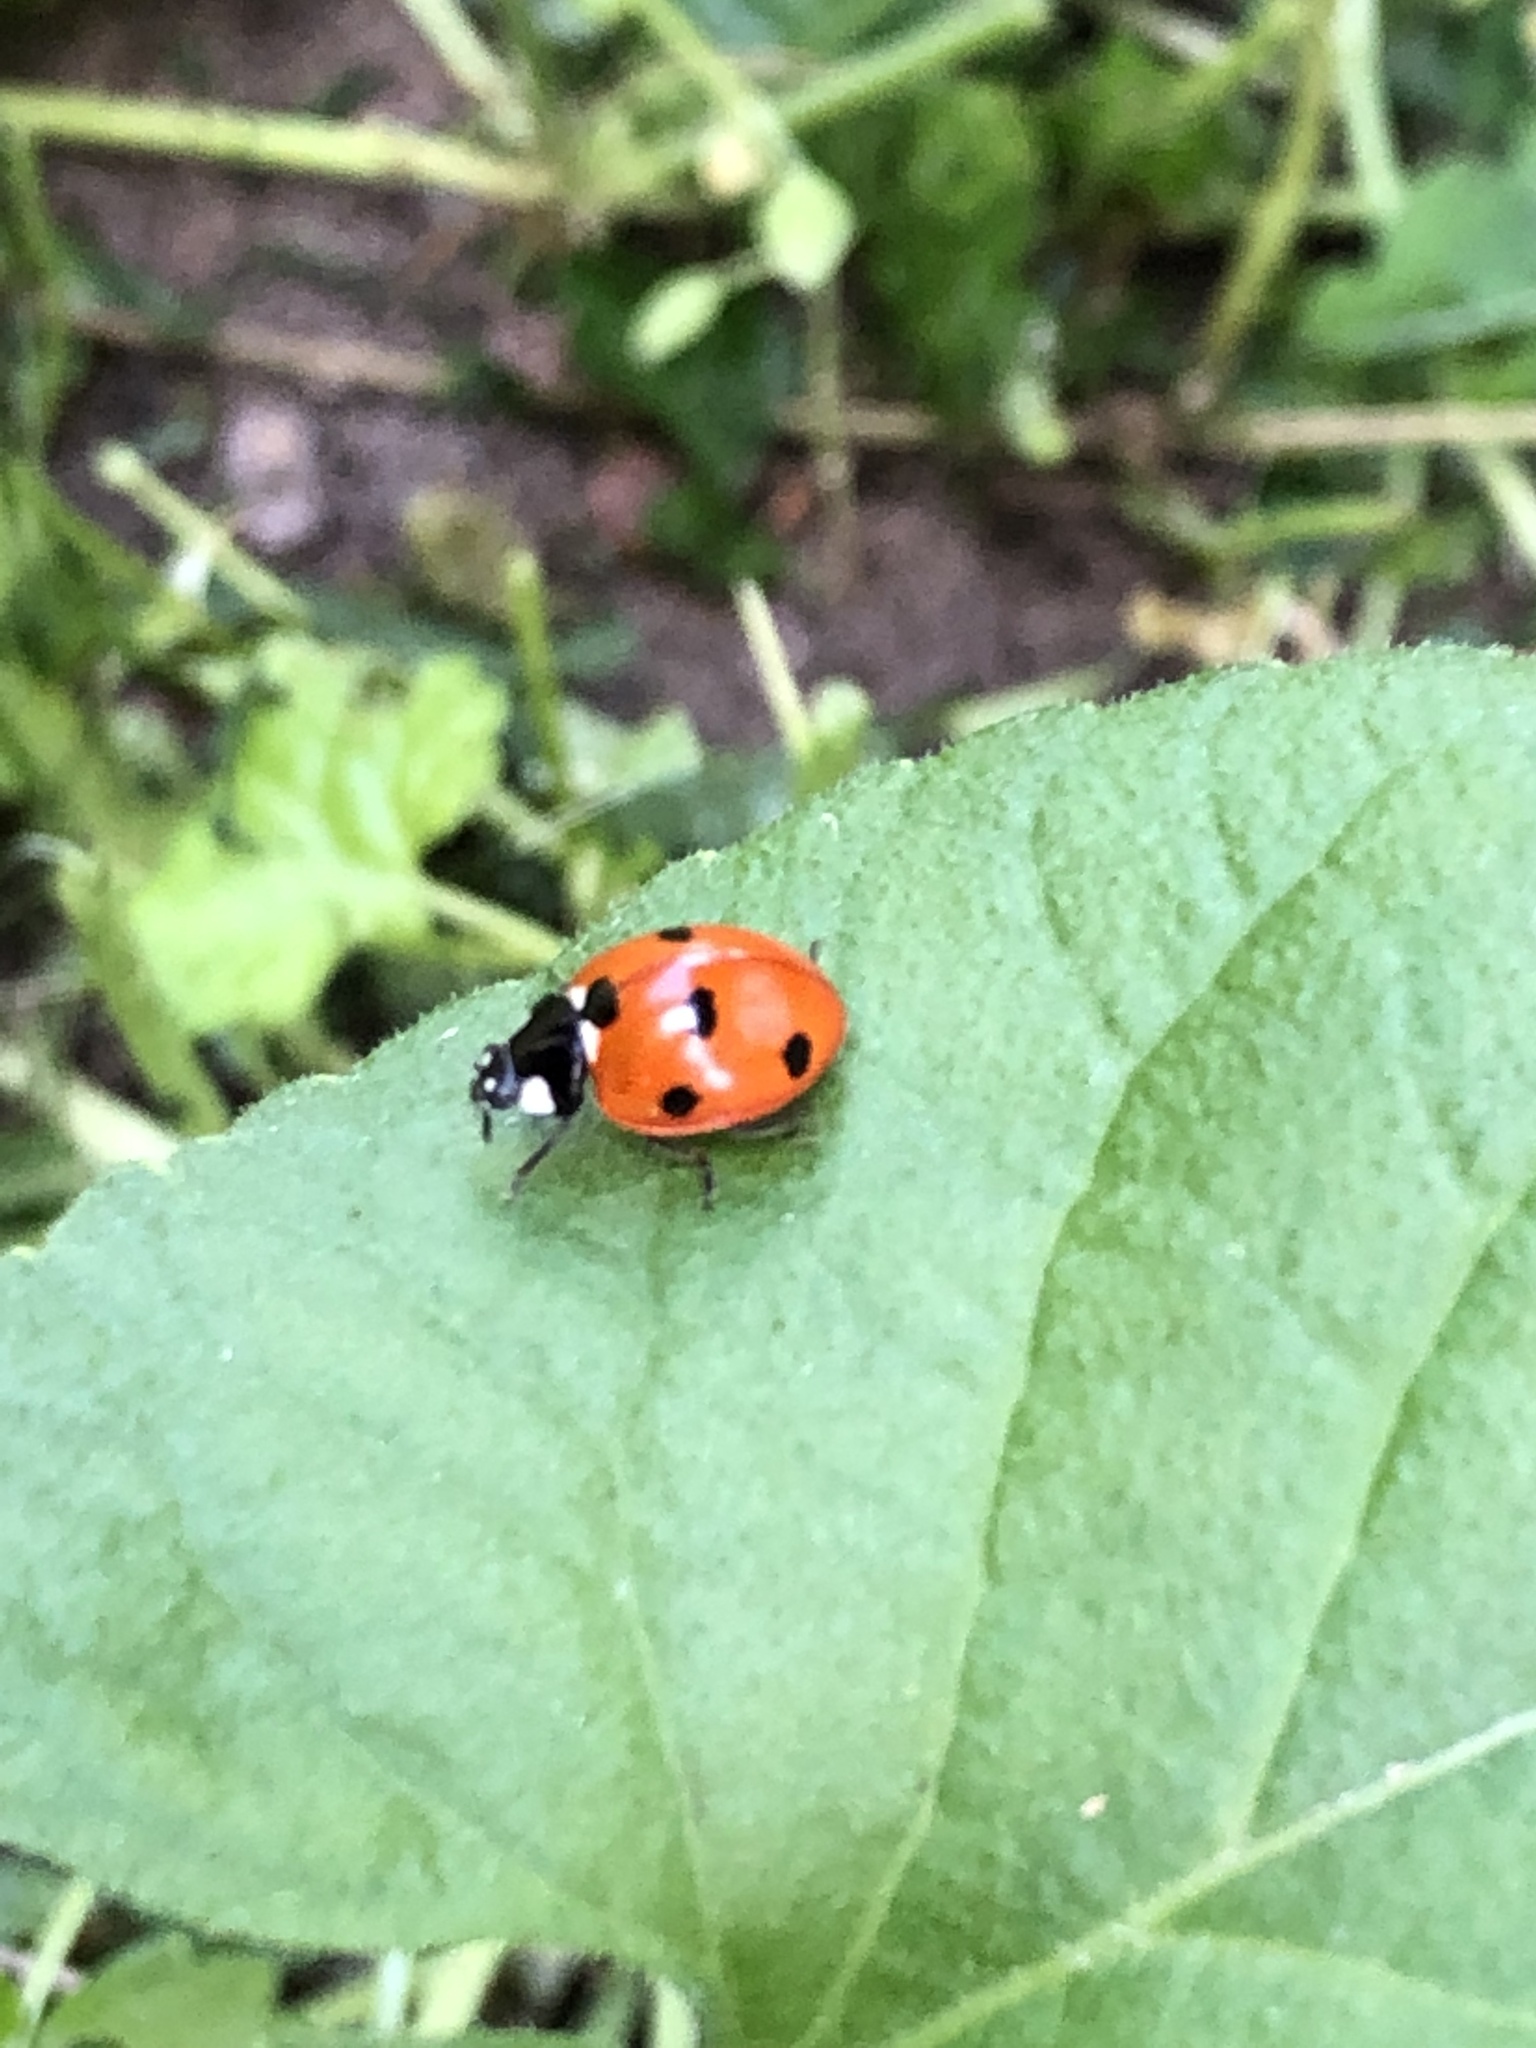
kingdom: Animalia
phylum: Arthropoda
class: Insecta
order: Coleoptera
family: Coccinellidae
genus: Coccinella
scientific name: Coccinella septempunctata
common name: Sevenspotted lady beetle
